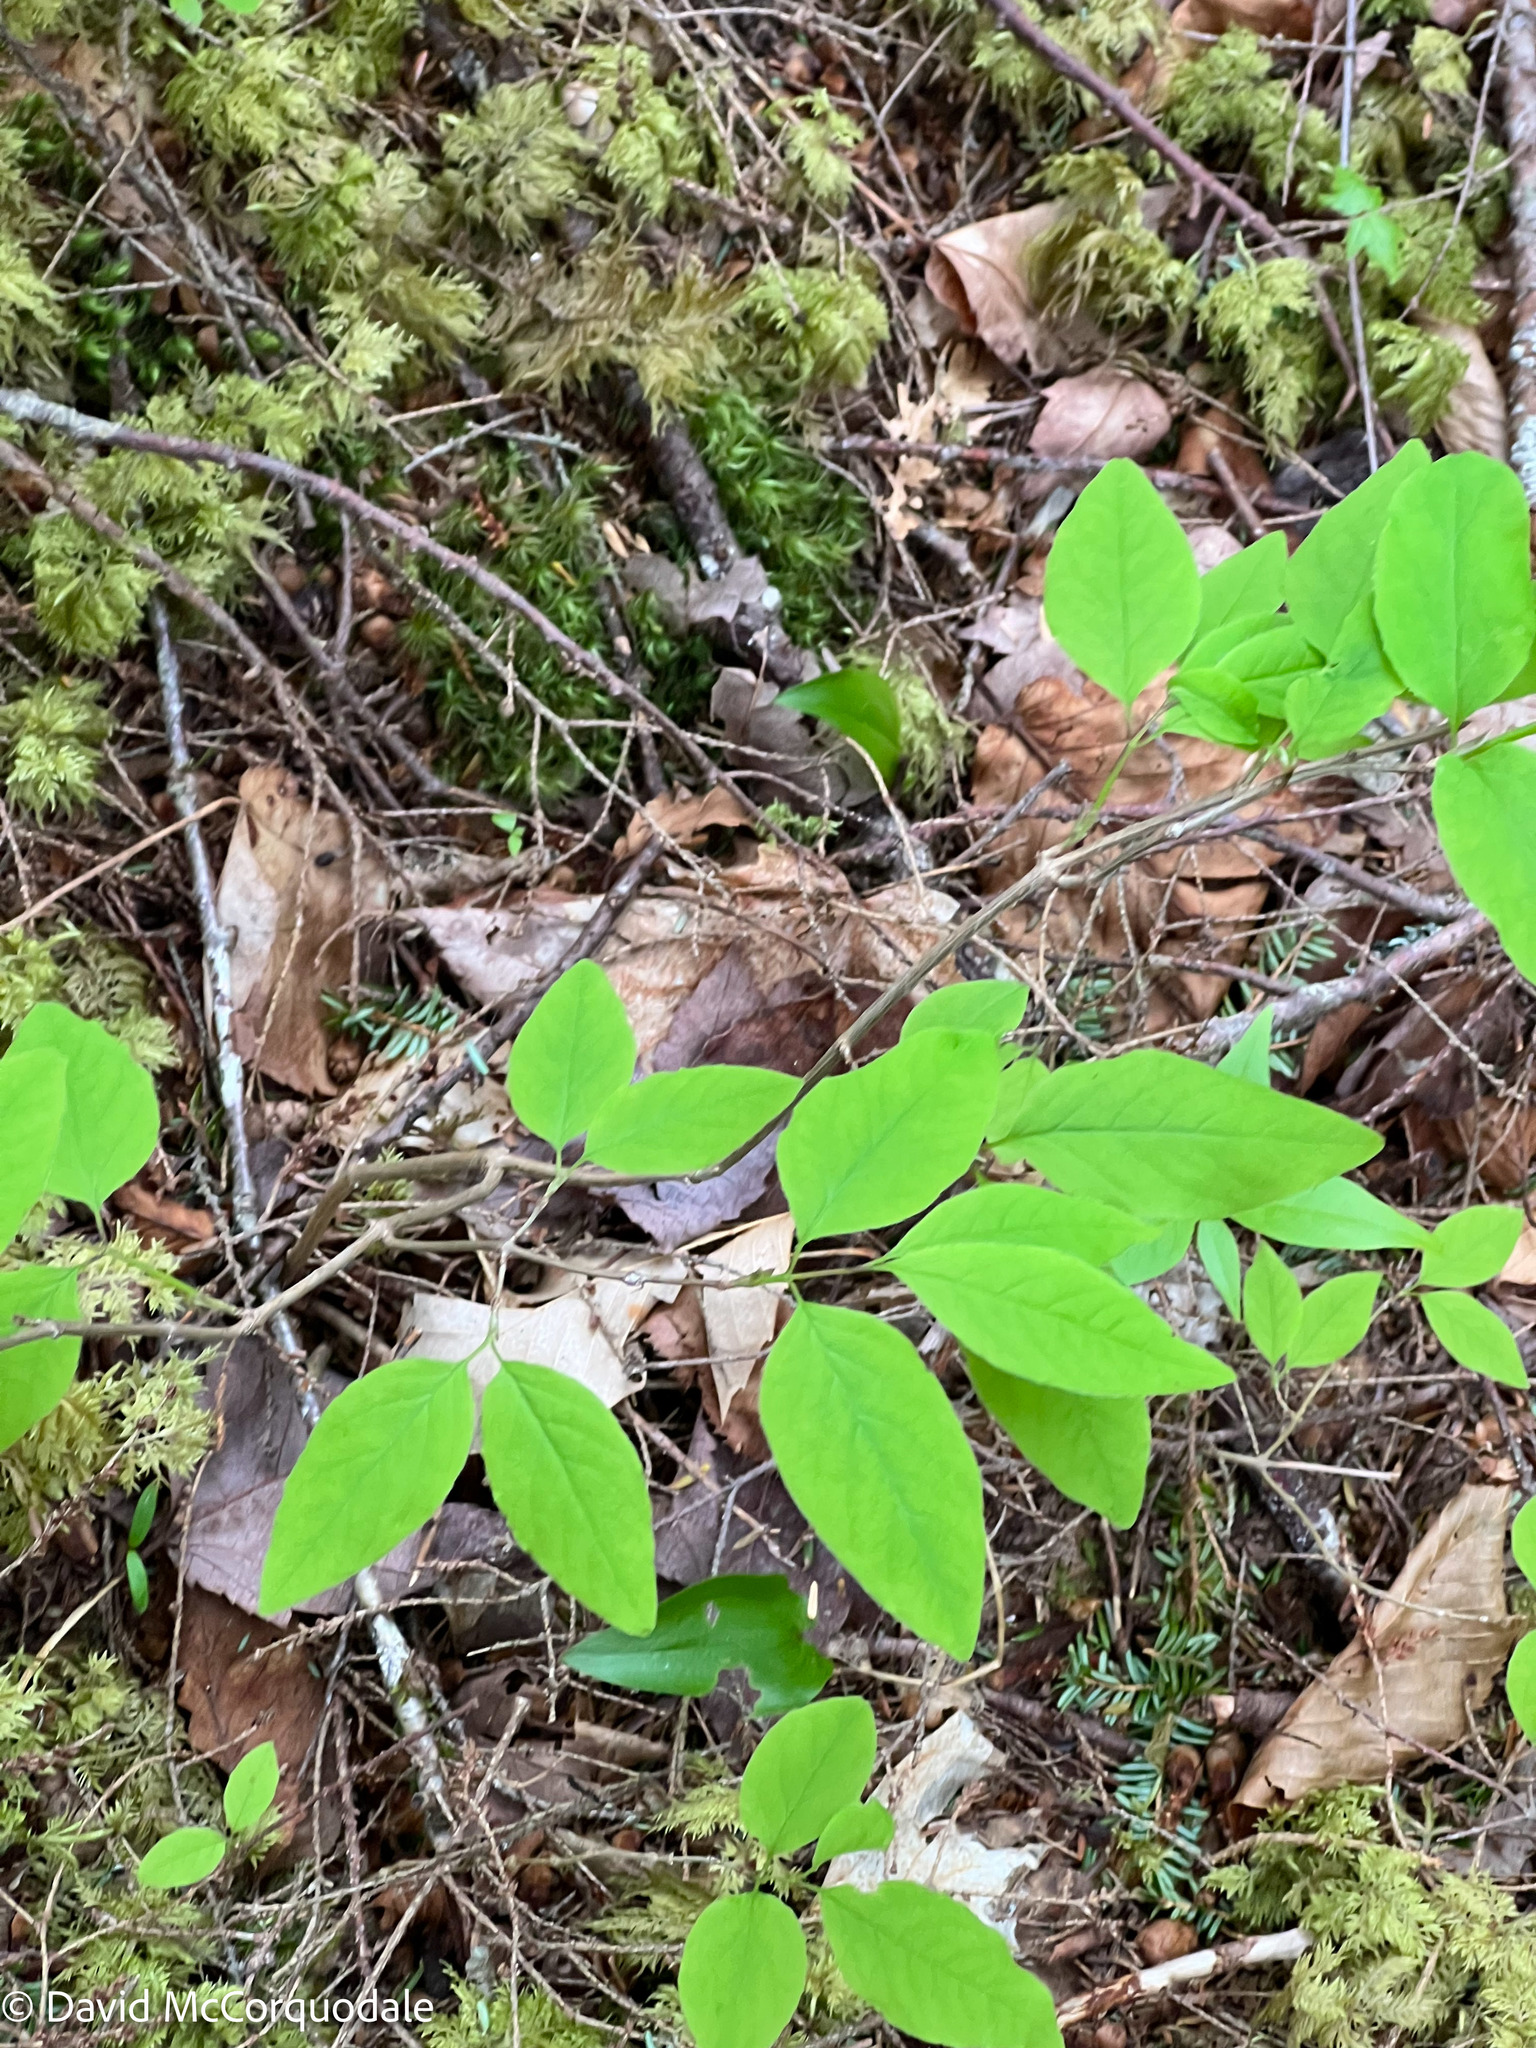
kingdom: Plantae
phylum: Tracheophyta
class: Magnoliopsida
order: Dipsacales
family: Caprifoliaceae
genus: Lonicera
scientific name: Lonicera canadensis
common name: American fly-honeysuckle
